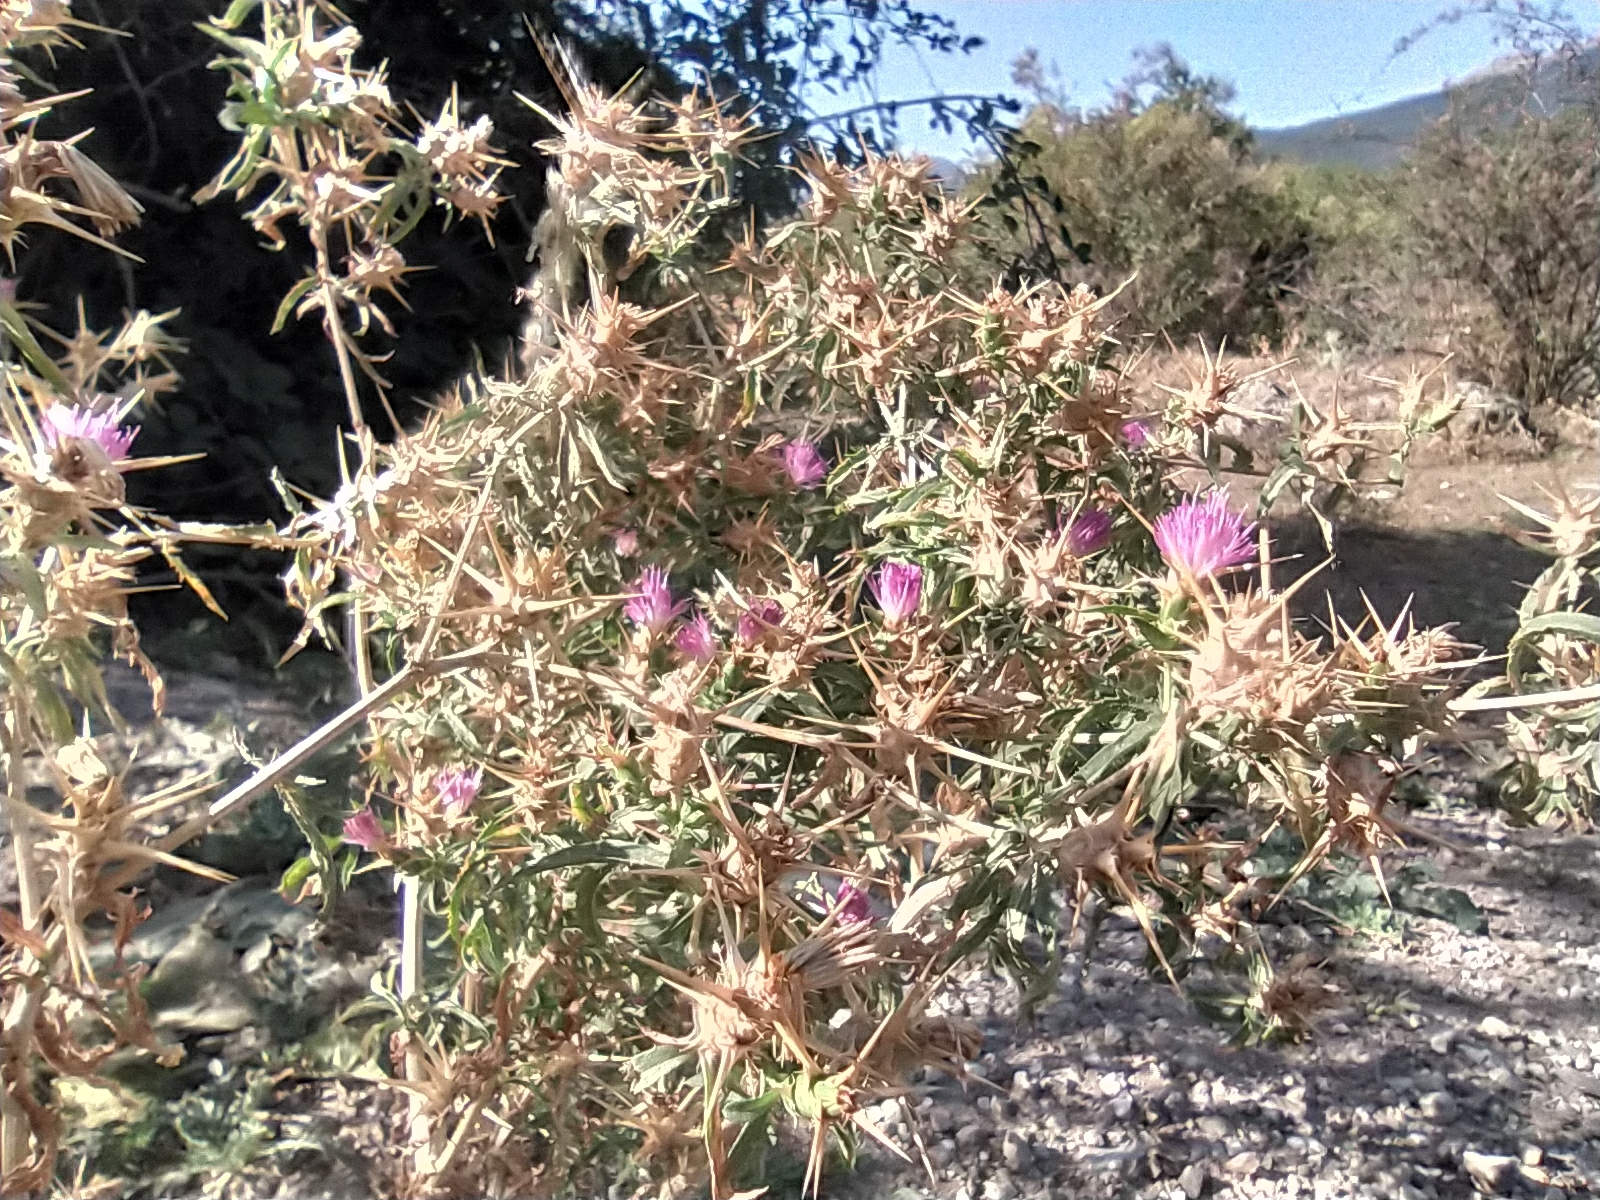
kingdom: Plantae
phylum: Tracheophyta
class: Magnoliopsida
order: Asterales
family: Asteraceae
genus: Centaurea
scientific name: Centaurea calcitrapa
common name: Red star-thistle
